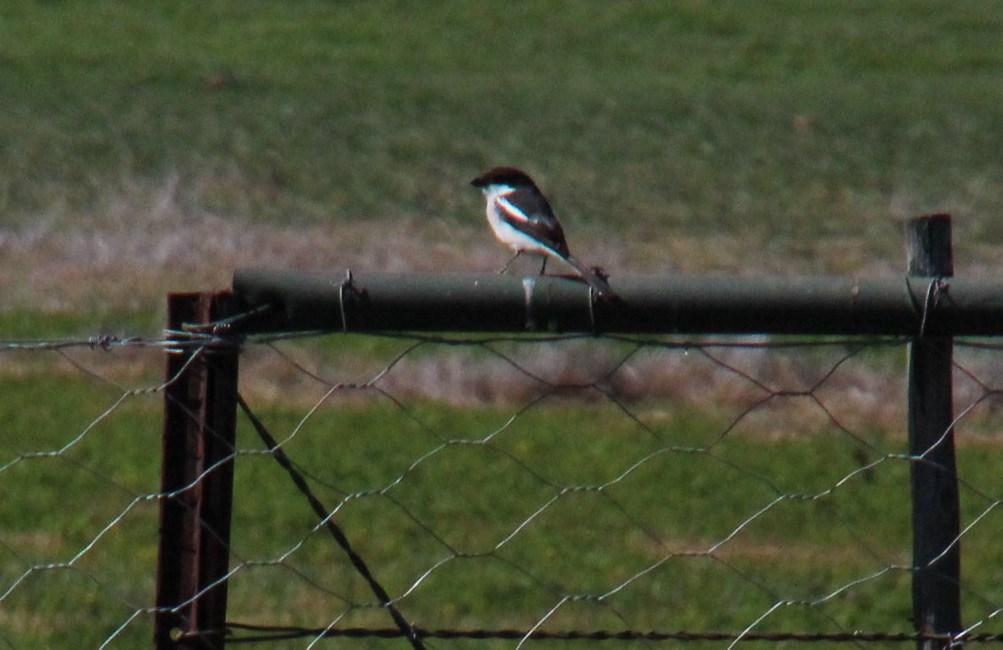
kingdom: Animalia
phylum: Chordata
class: Aves
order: Passeriformes
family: Laniidae
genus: Lanius
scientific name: Lanius collaris
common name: Southern fiscal
